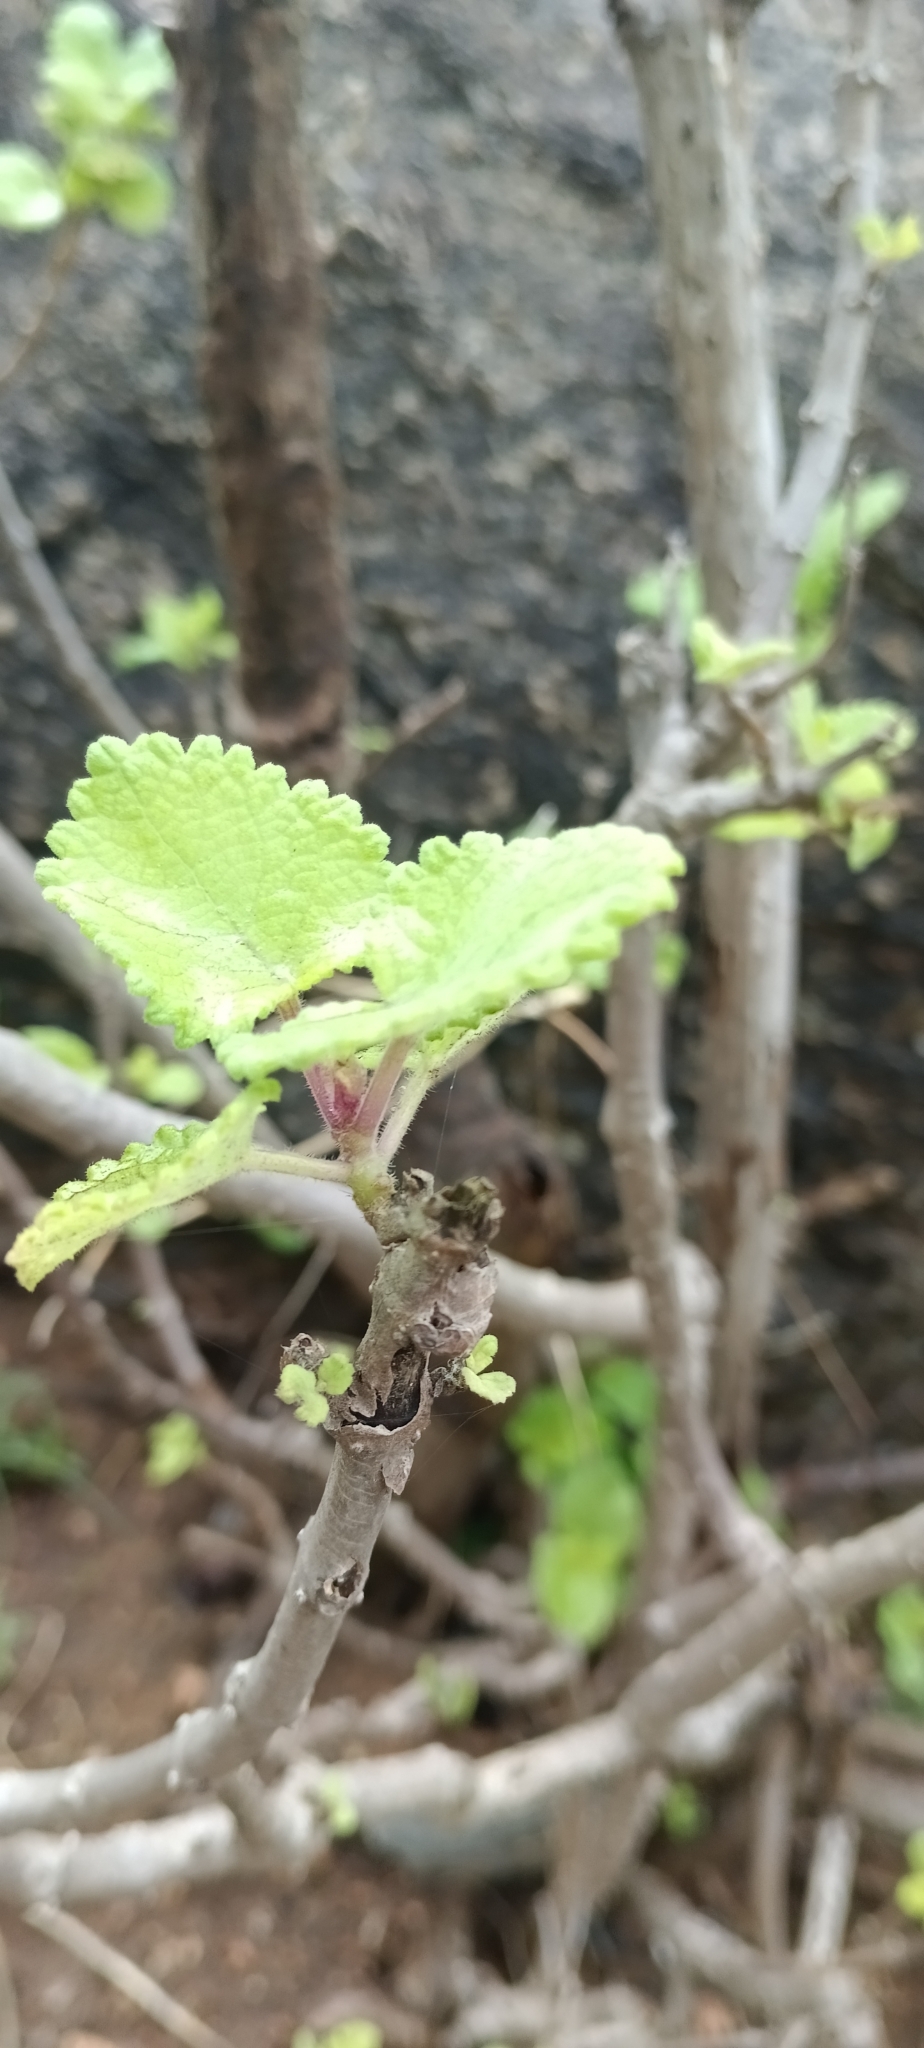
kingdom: Plantae
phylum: Tracheophyta
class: Magnoliopsida
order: Lamiales
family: Lamiaceae
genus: Tetradenia
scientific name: Tetradenia riparia
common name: Gingerbush
